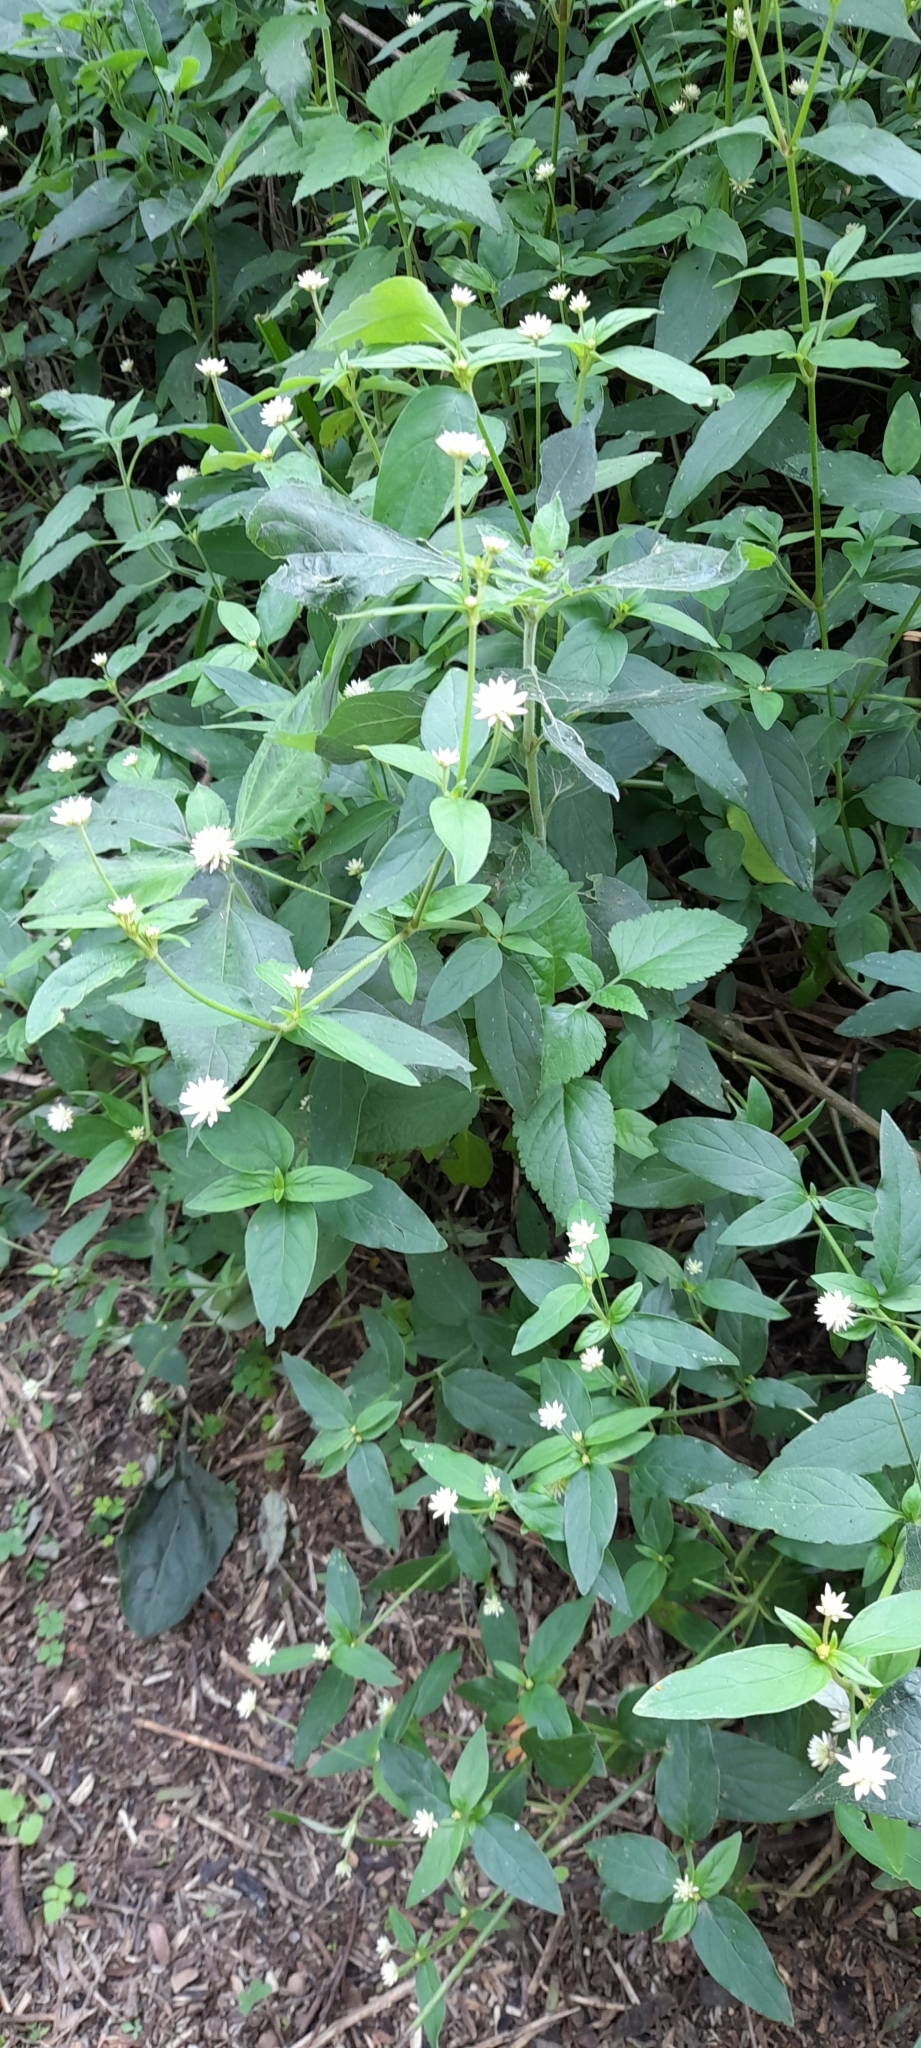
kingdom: Plantae
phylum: Tracheophyta
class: Magnoliopsida
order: Caryophyllales
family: Amaranthaceae
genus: Gomphrena
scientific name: Gomphrena elegans
